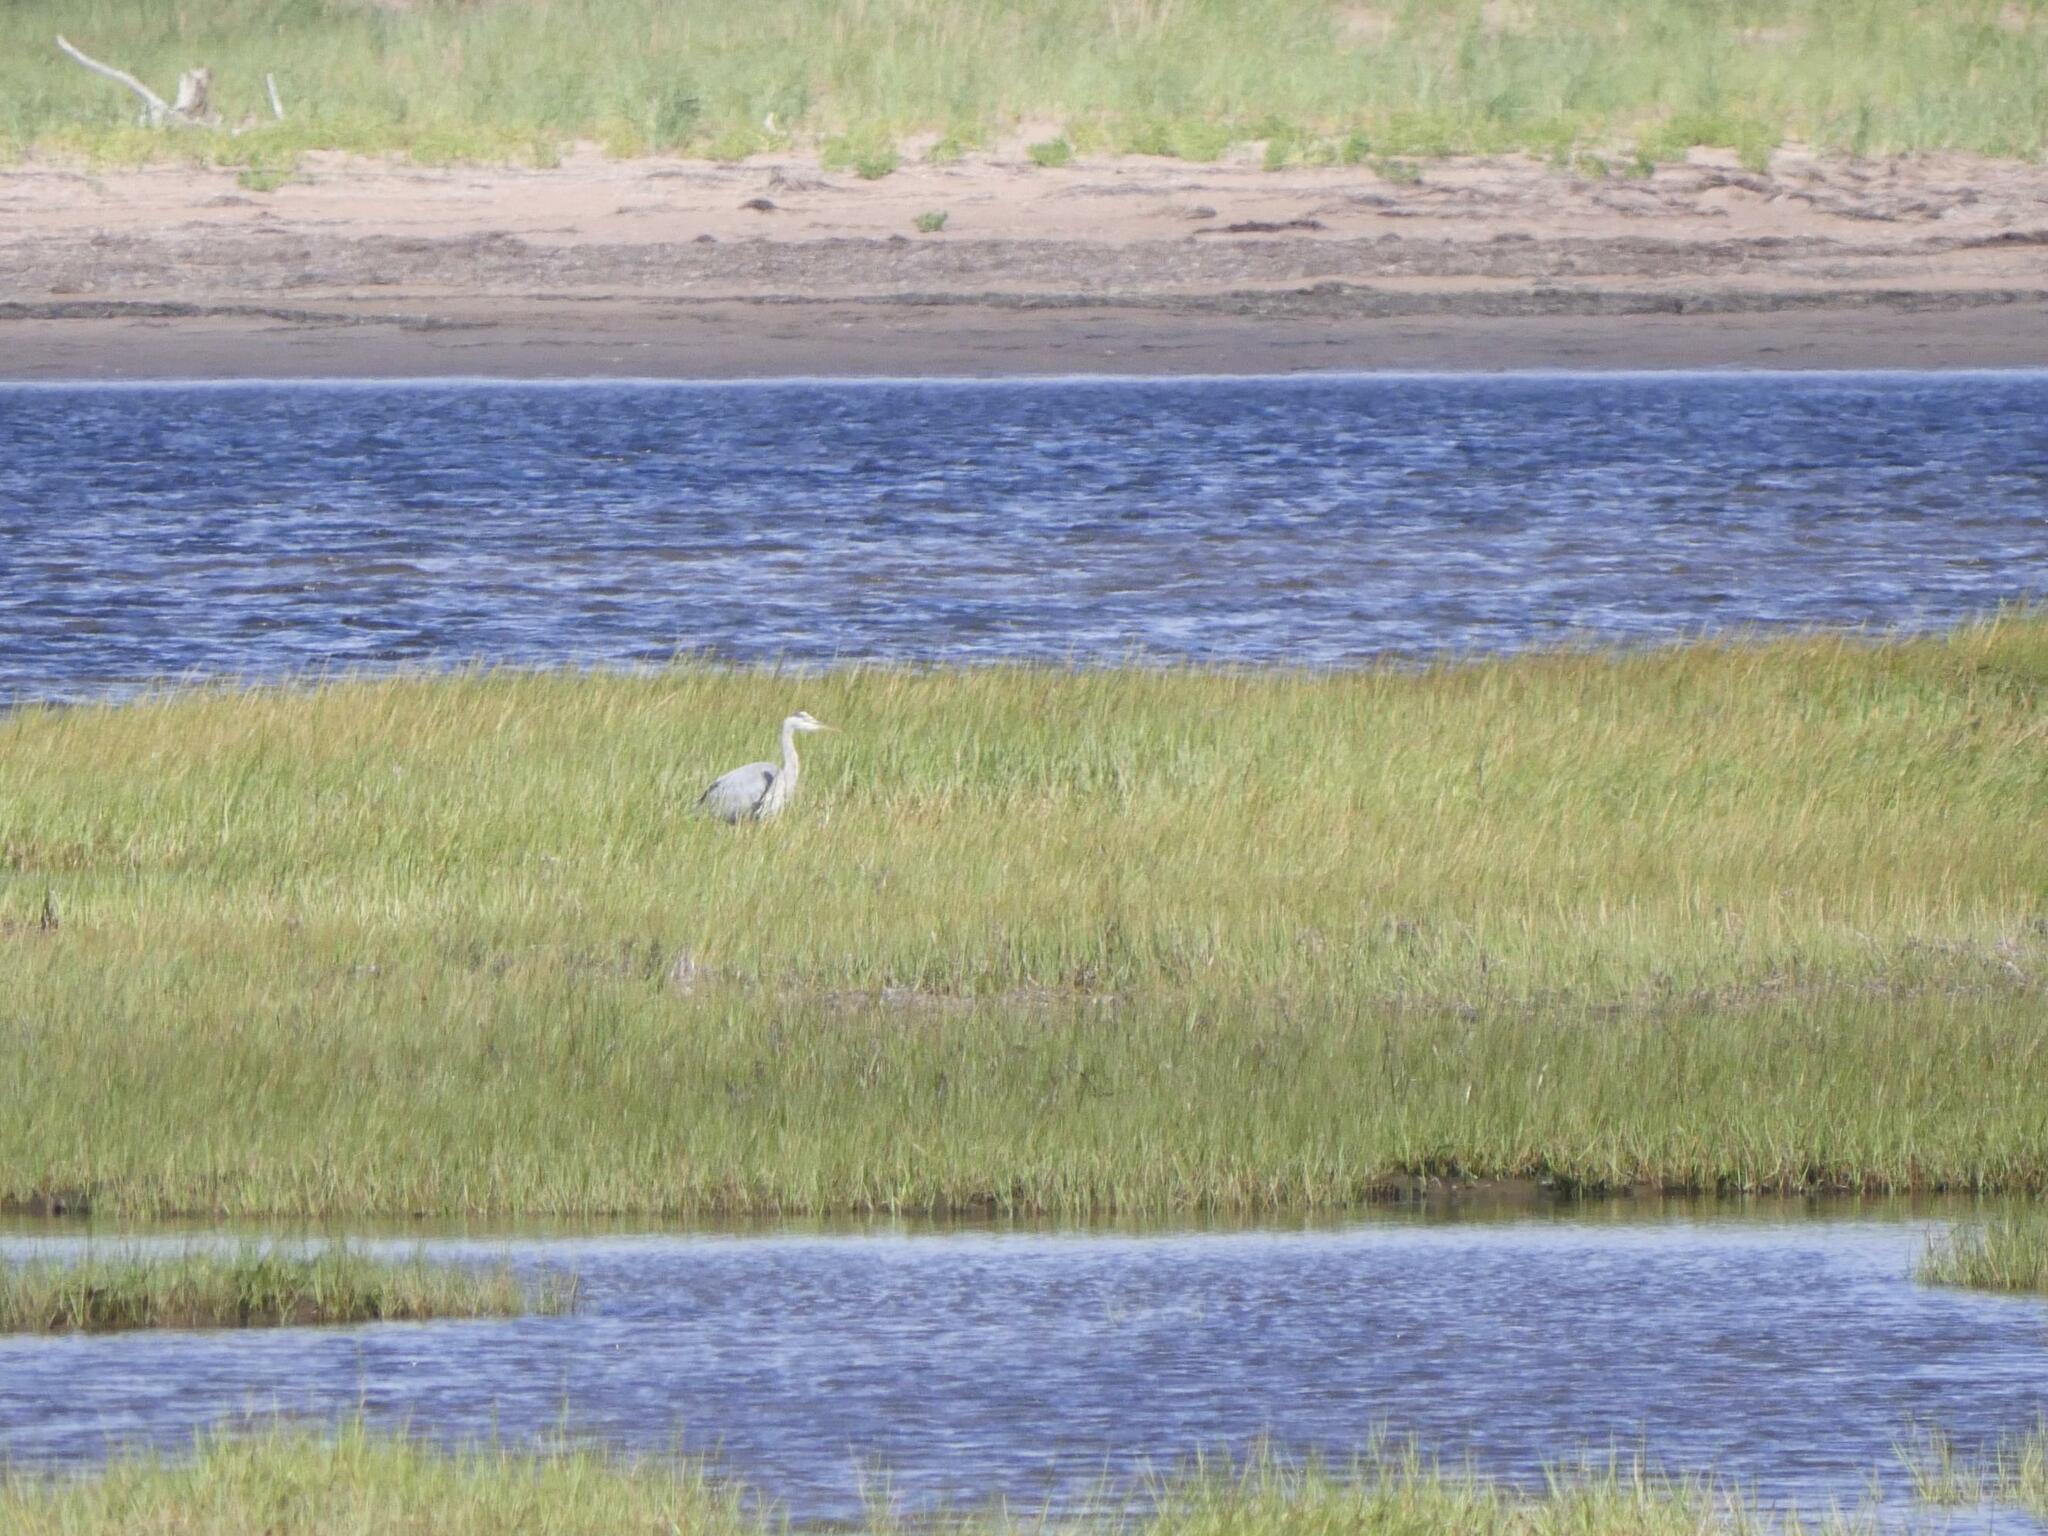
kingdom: Animalia
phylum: Chordata
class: Aves
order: Pelecaniformes
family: Ardeidae
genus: Ardea
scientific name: Ardea herodias
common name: Great blue heron
